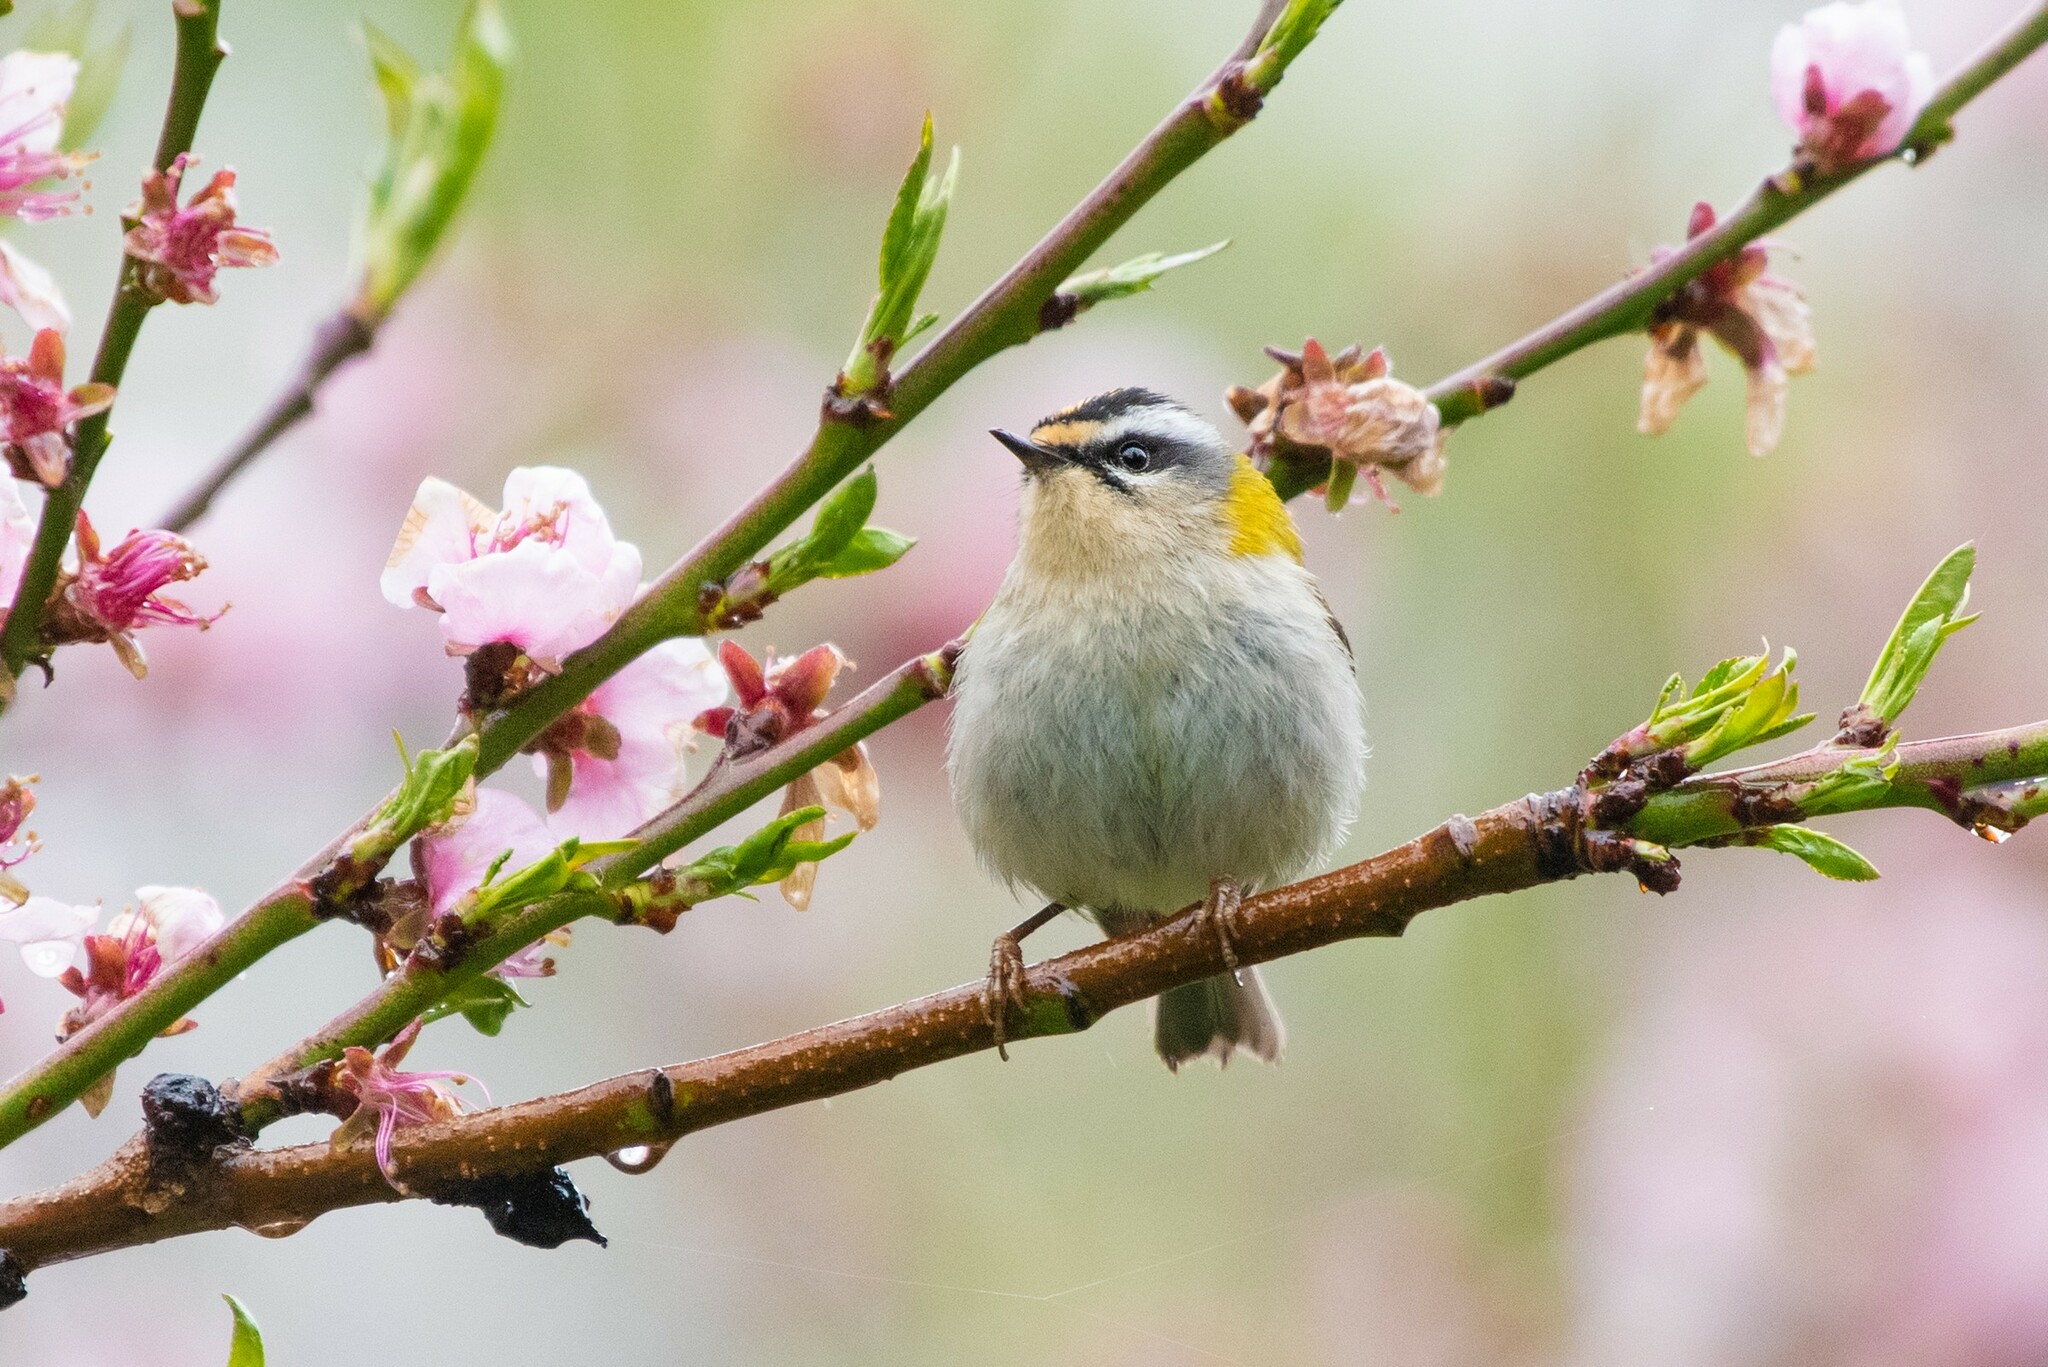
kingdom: Animalia
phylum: Chordata
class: Aves
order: Passeriformes
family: Regulidae
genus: Regulus
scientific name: Regulus ignicapilla
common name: Firecrest
